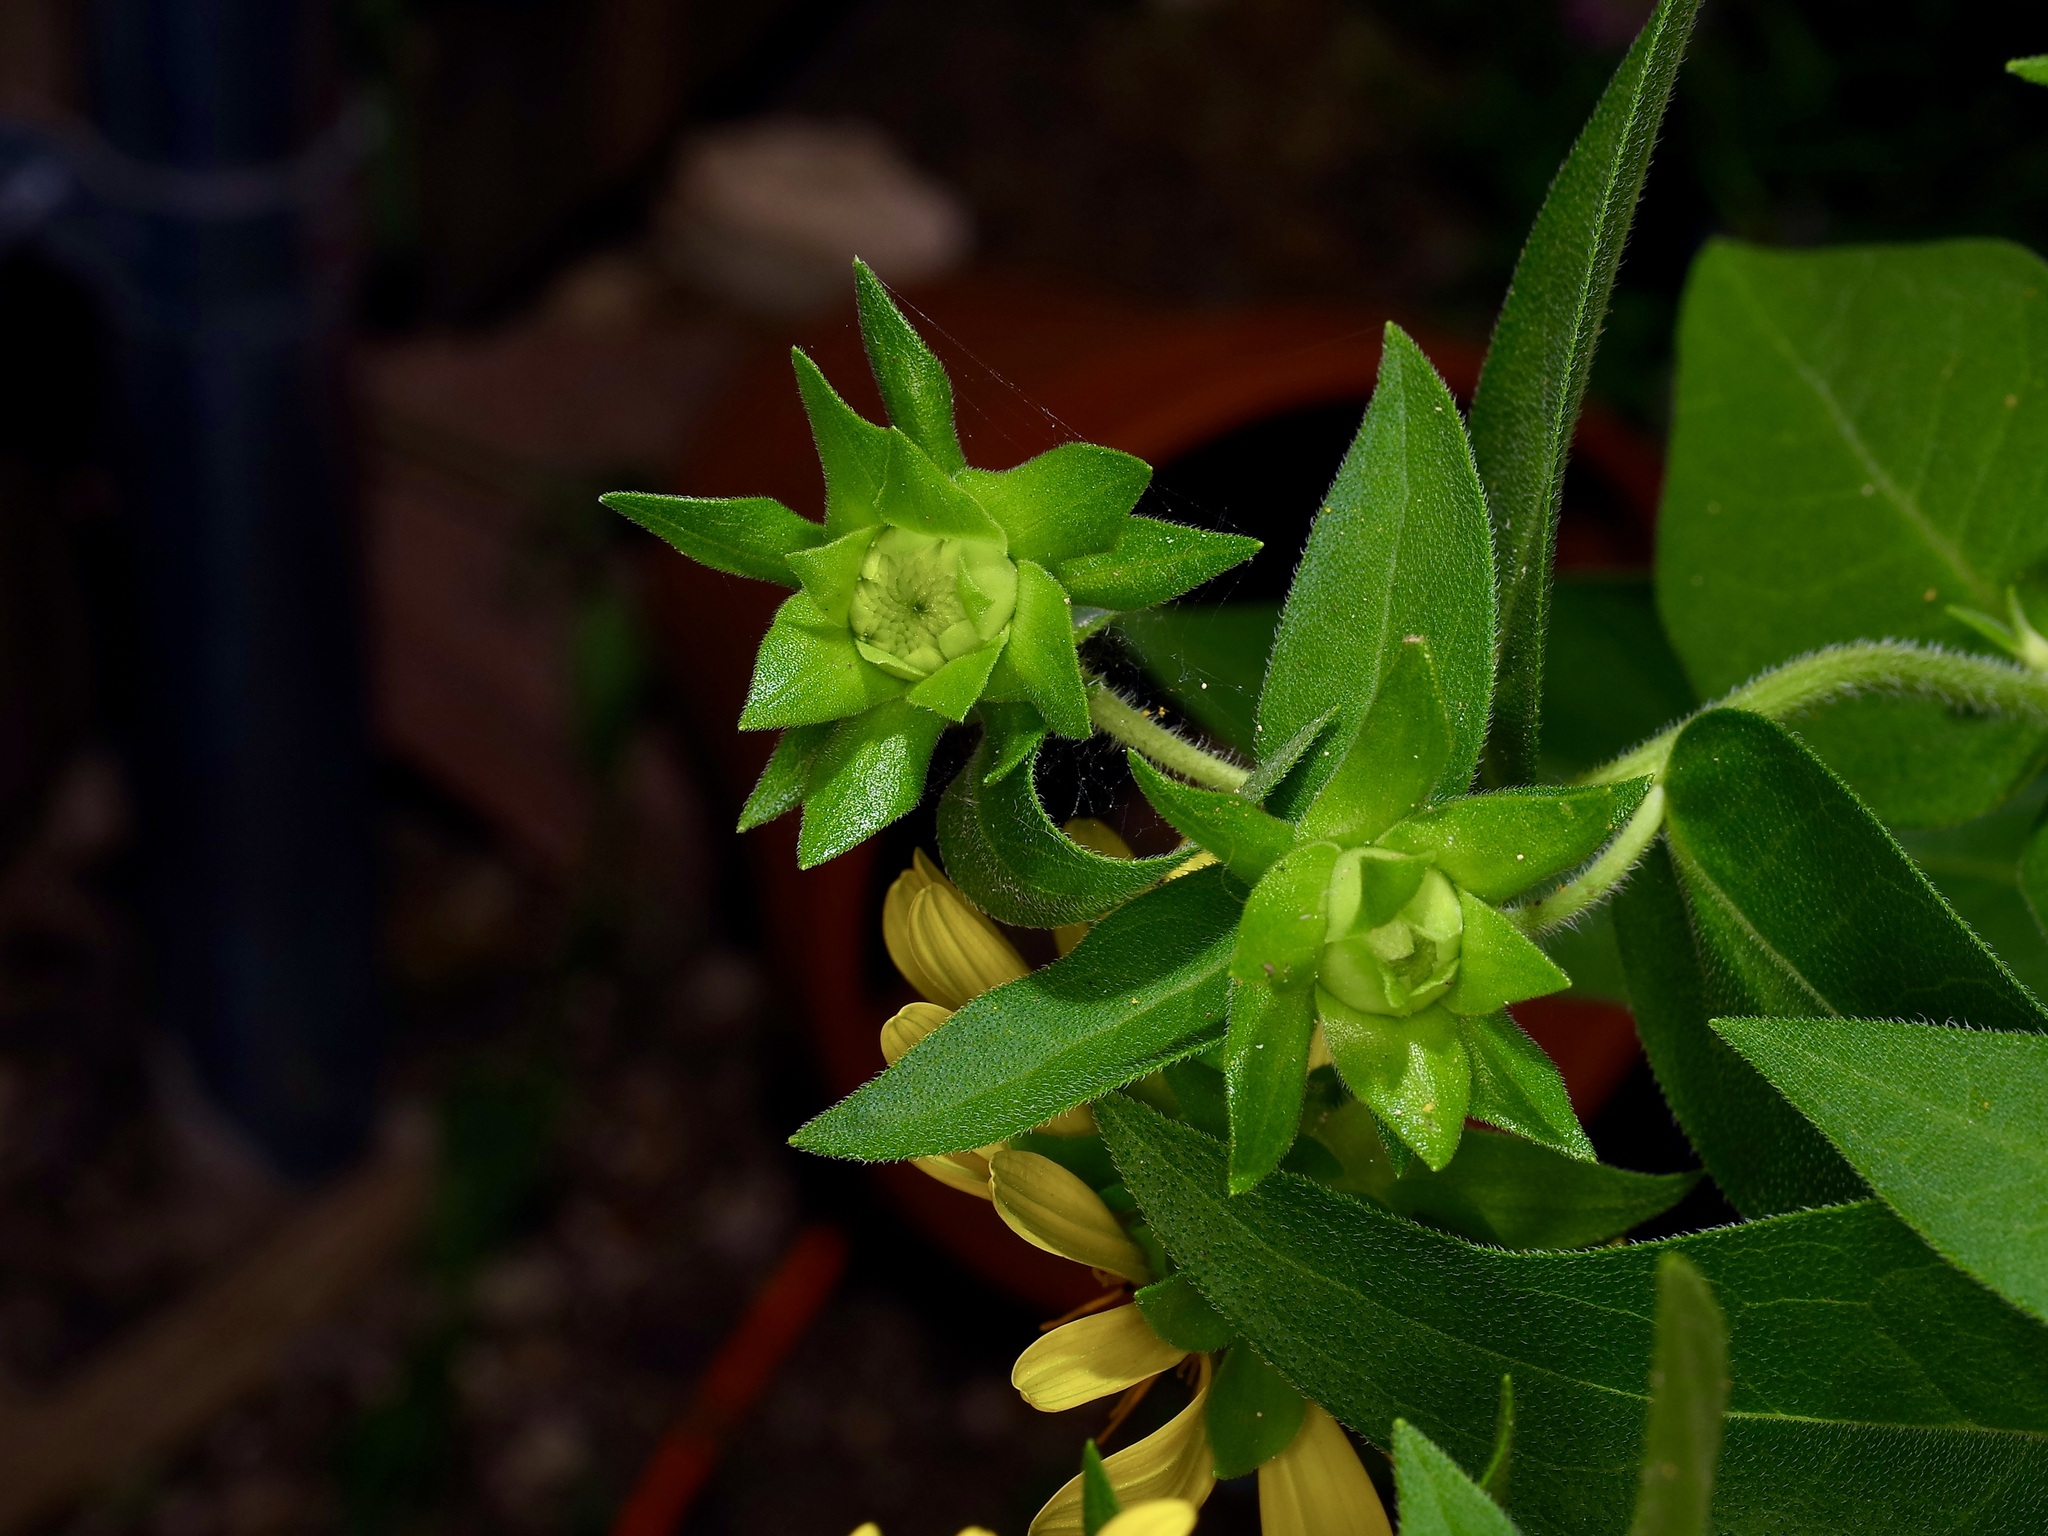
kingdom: Plantae
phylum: Tracheophyta
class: Magnoliopsida
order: Asterales
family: Asteraceae
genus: Silphium
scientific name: Silphium radula
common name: Roughleaf rosinweed
